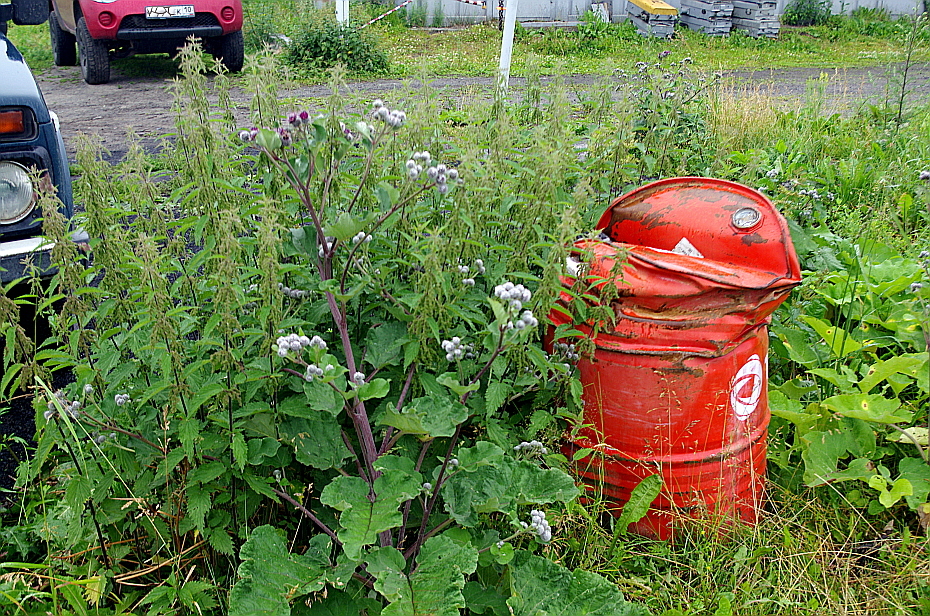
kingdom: Plantae
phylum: Tracheophyta
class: Magnoliopsida
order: Asterales
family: Asteraceae
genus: Arctium
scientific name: Arctium tomentosum
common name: Woolly burdock
